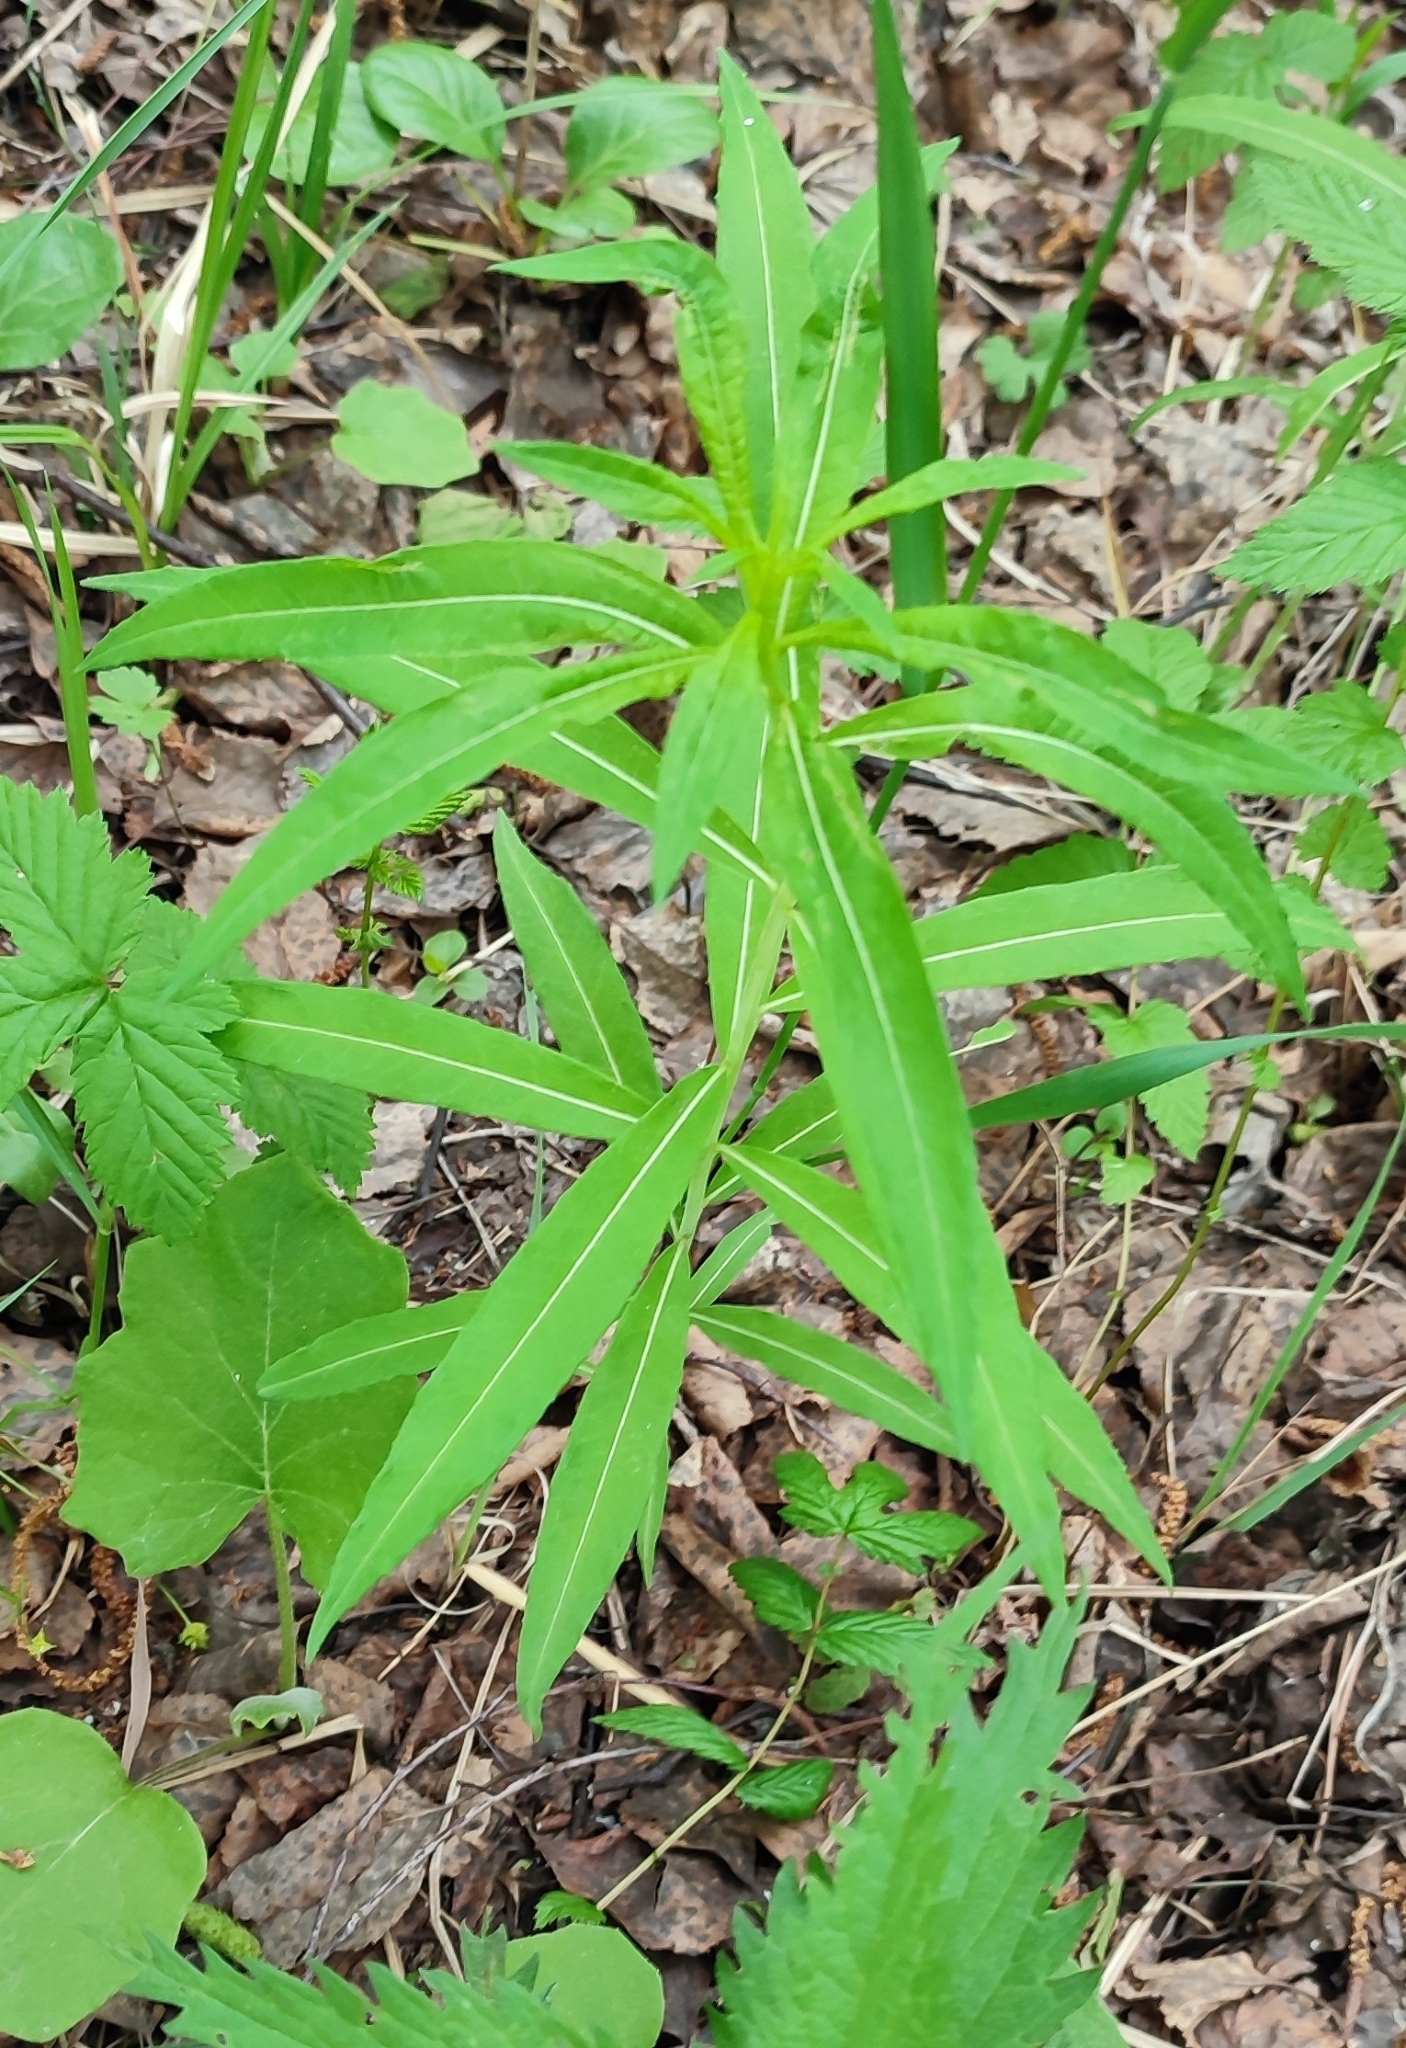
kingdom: Plantae
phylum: Tracheophyta
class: Magnoliopsida
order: Myrtales
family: Onagraceae
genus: Chamaenerion
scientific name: Chamaenerion angustifolium
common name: Fireweed
